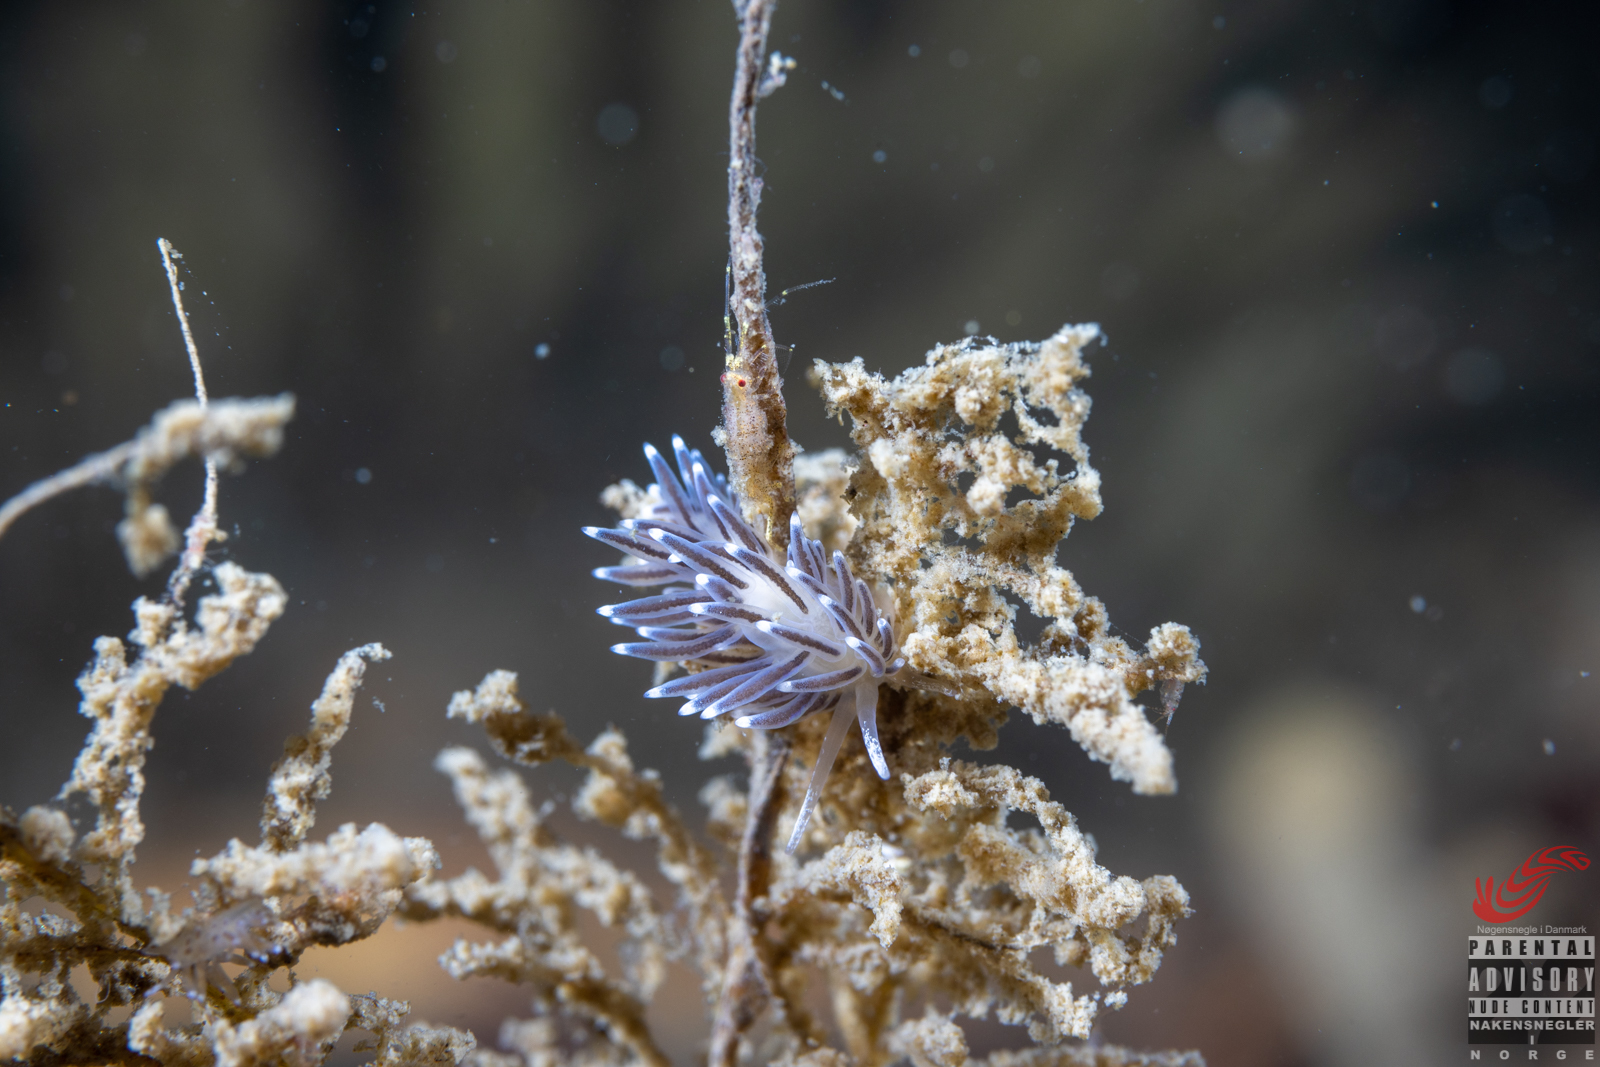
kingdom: Animalia
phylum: Mollusca
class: Gastropoda
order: Nudibranchia
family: Cuthonellidae
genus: Cuthonella
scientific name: Cuthonella concinna
